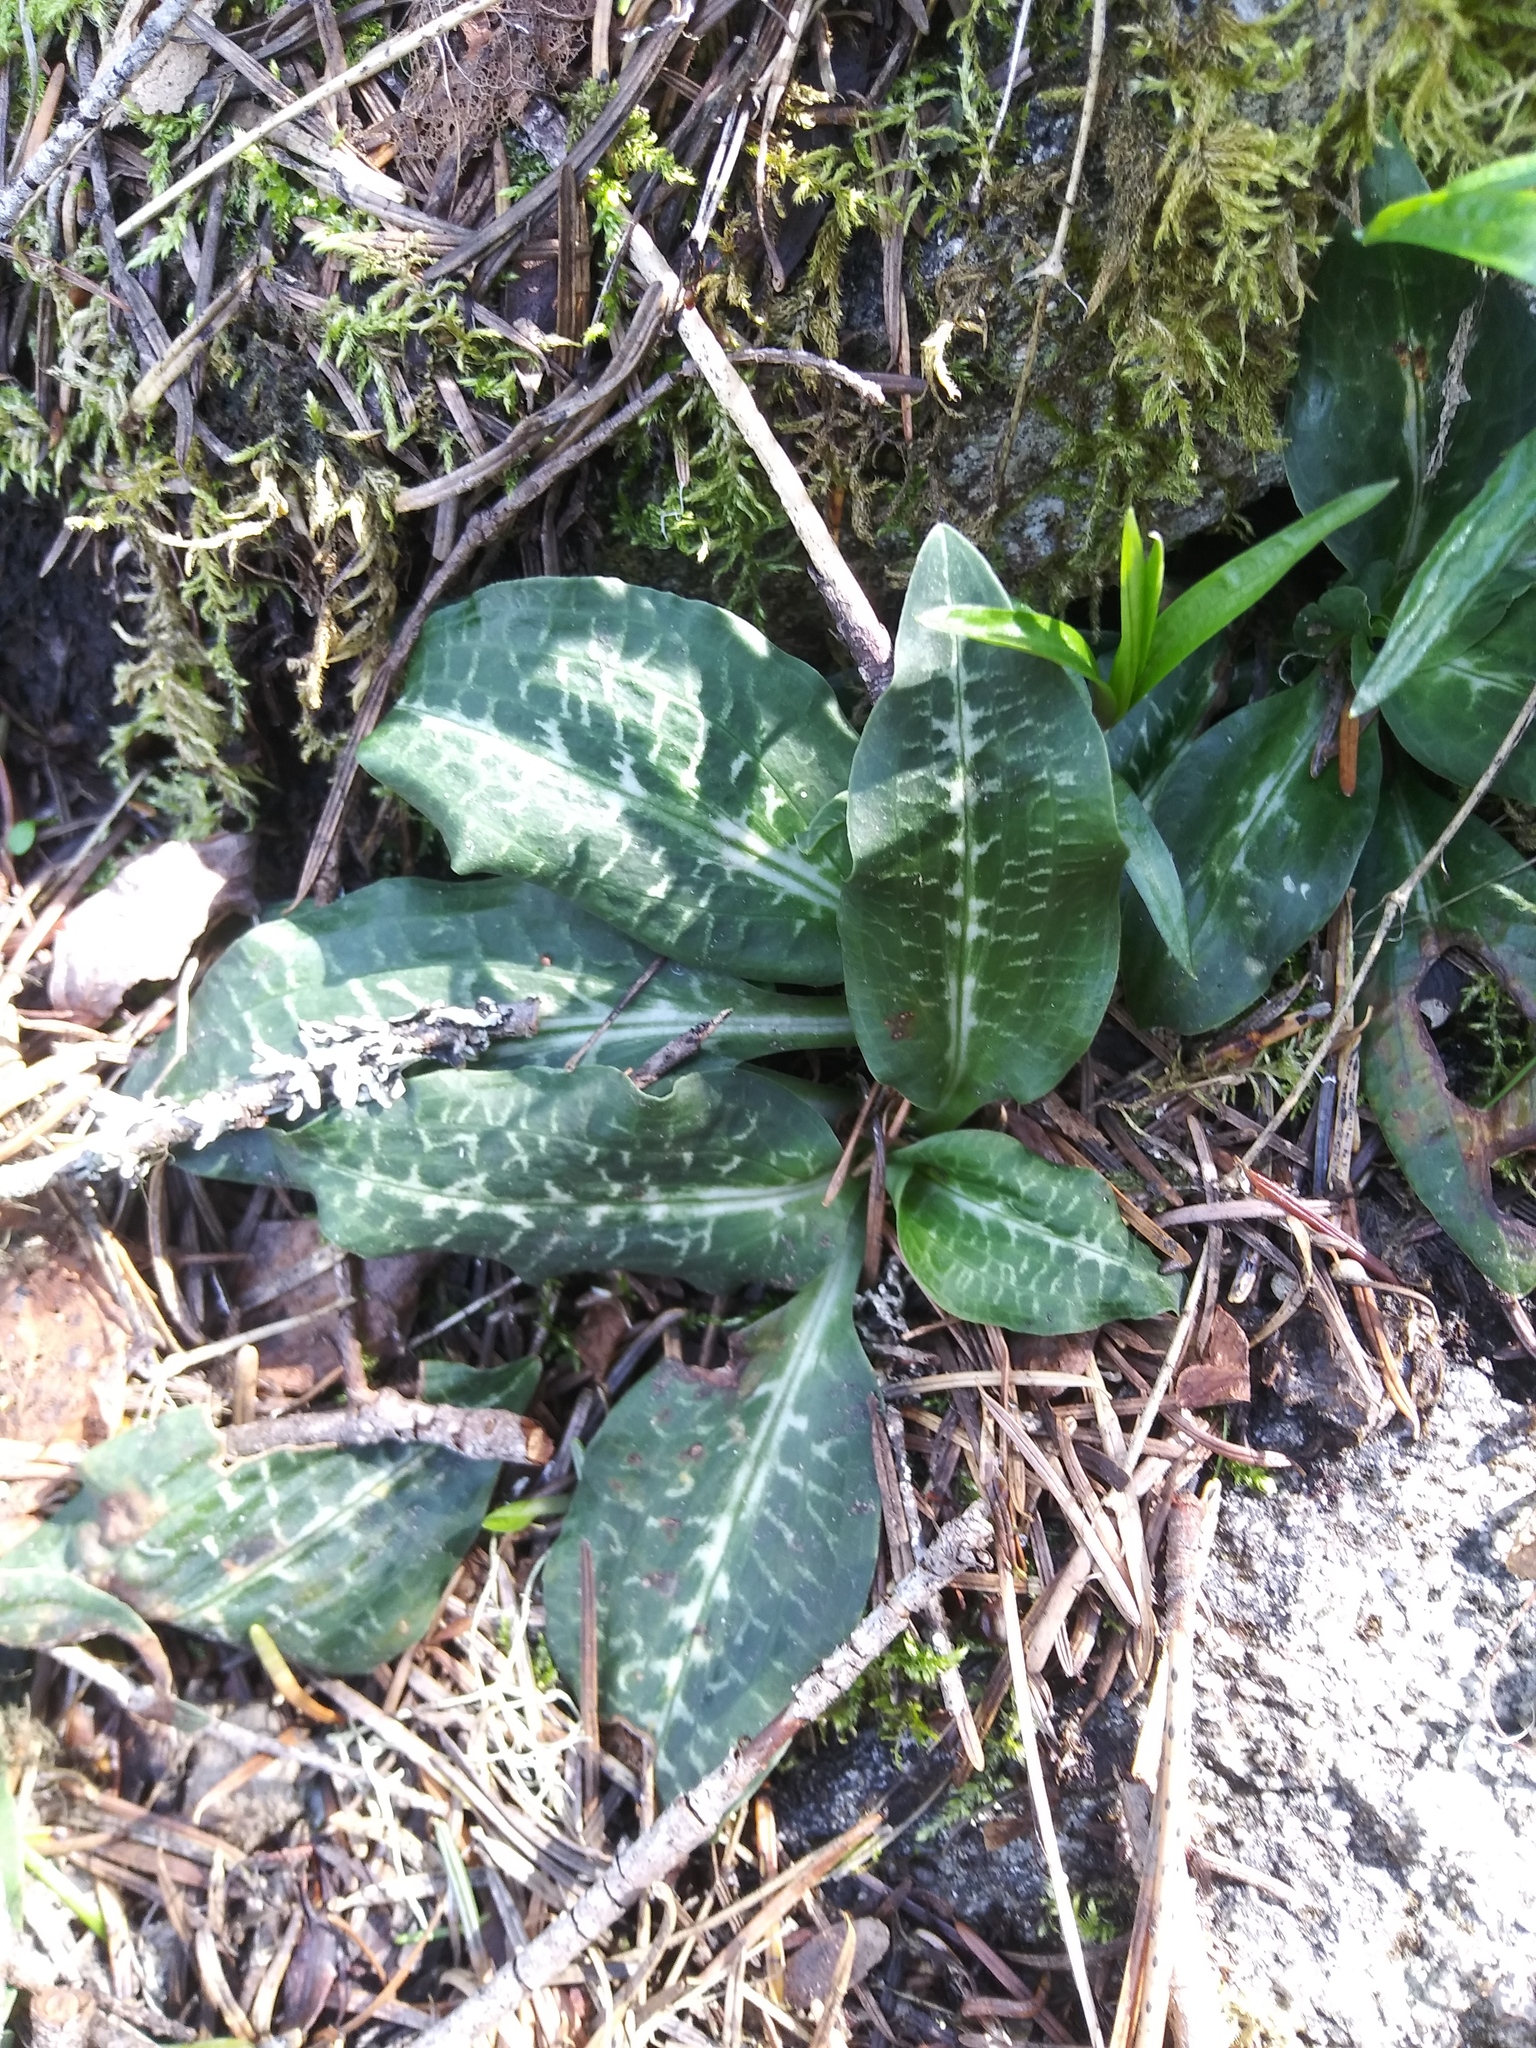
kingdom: Plantae
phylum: Tracheophyta
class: Liliopsida
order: Asparagales
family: Orchidaceae
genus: Goodyera
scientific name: Goodyera oblongifolia
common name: Giant rattlesnake-plantain
